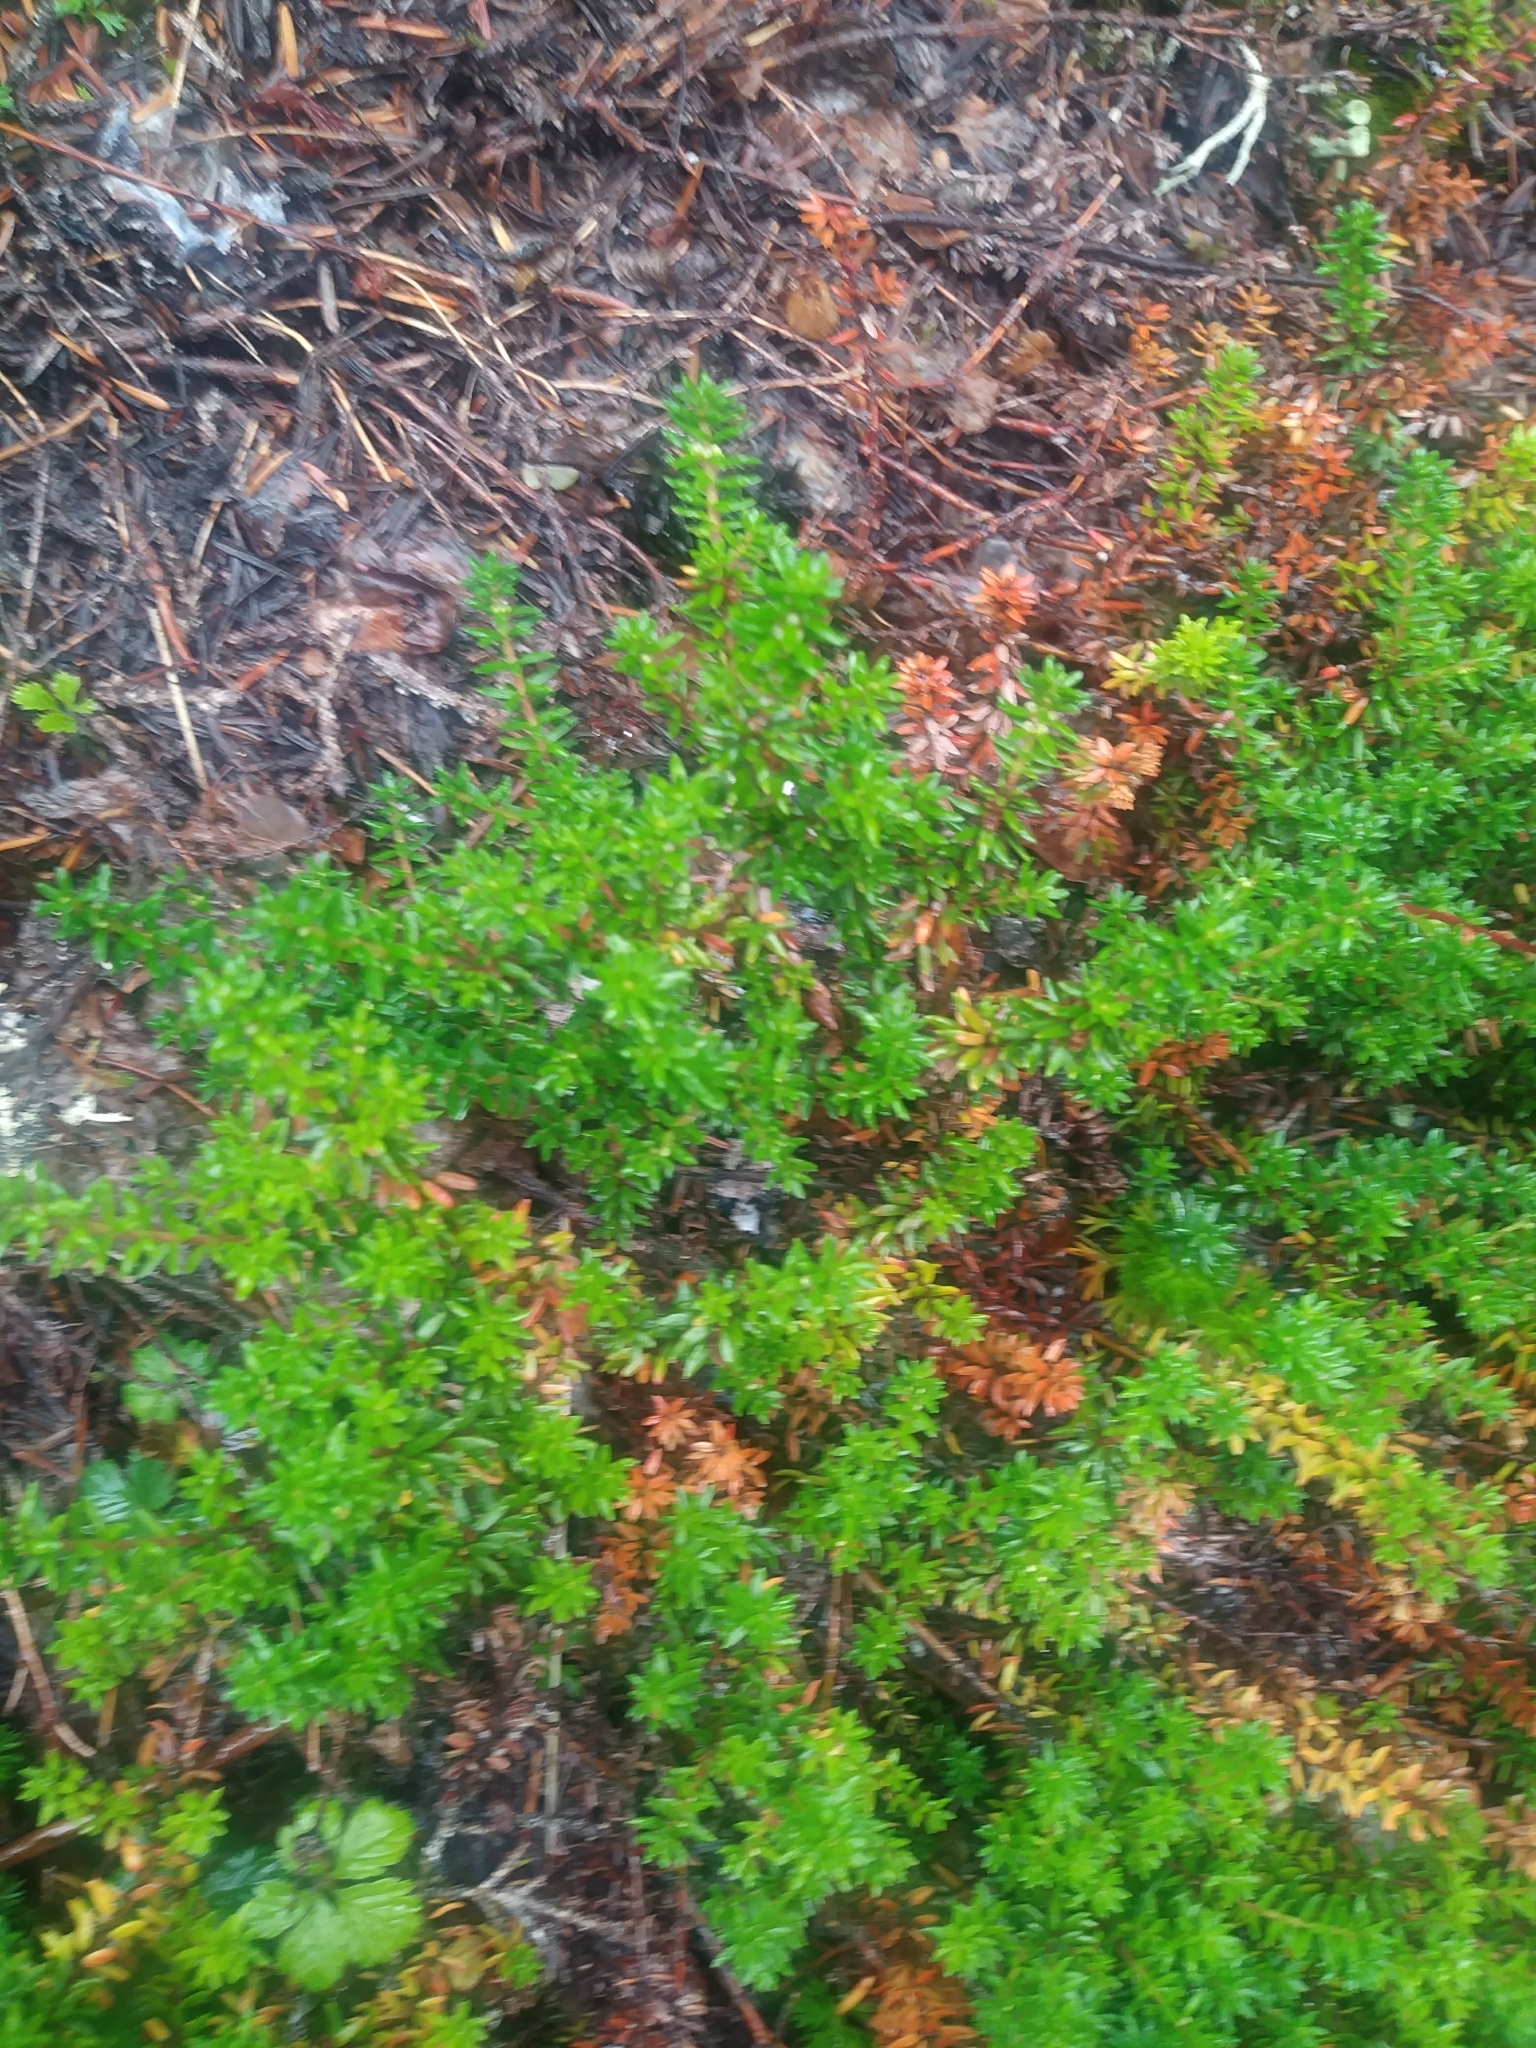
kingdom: Plantae
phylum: Tracheophyta
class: Magnoliopsida
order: Ericales
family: Ericaceae
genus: Empetrum
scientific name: Empetrum nigrum
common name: Black crowberry
